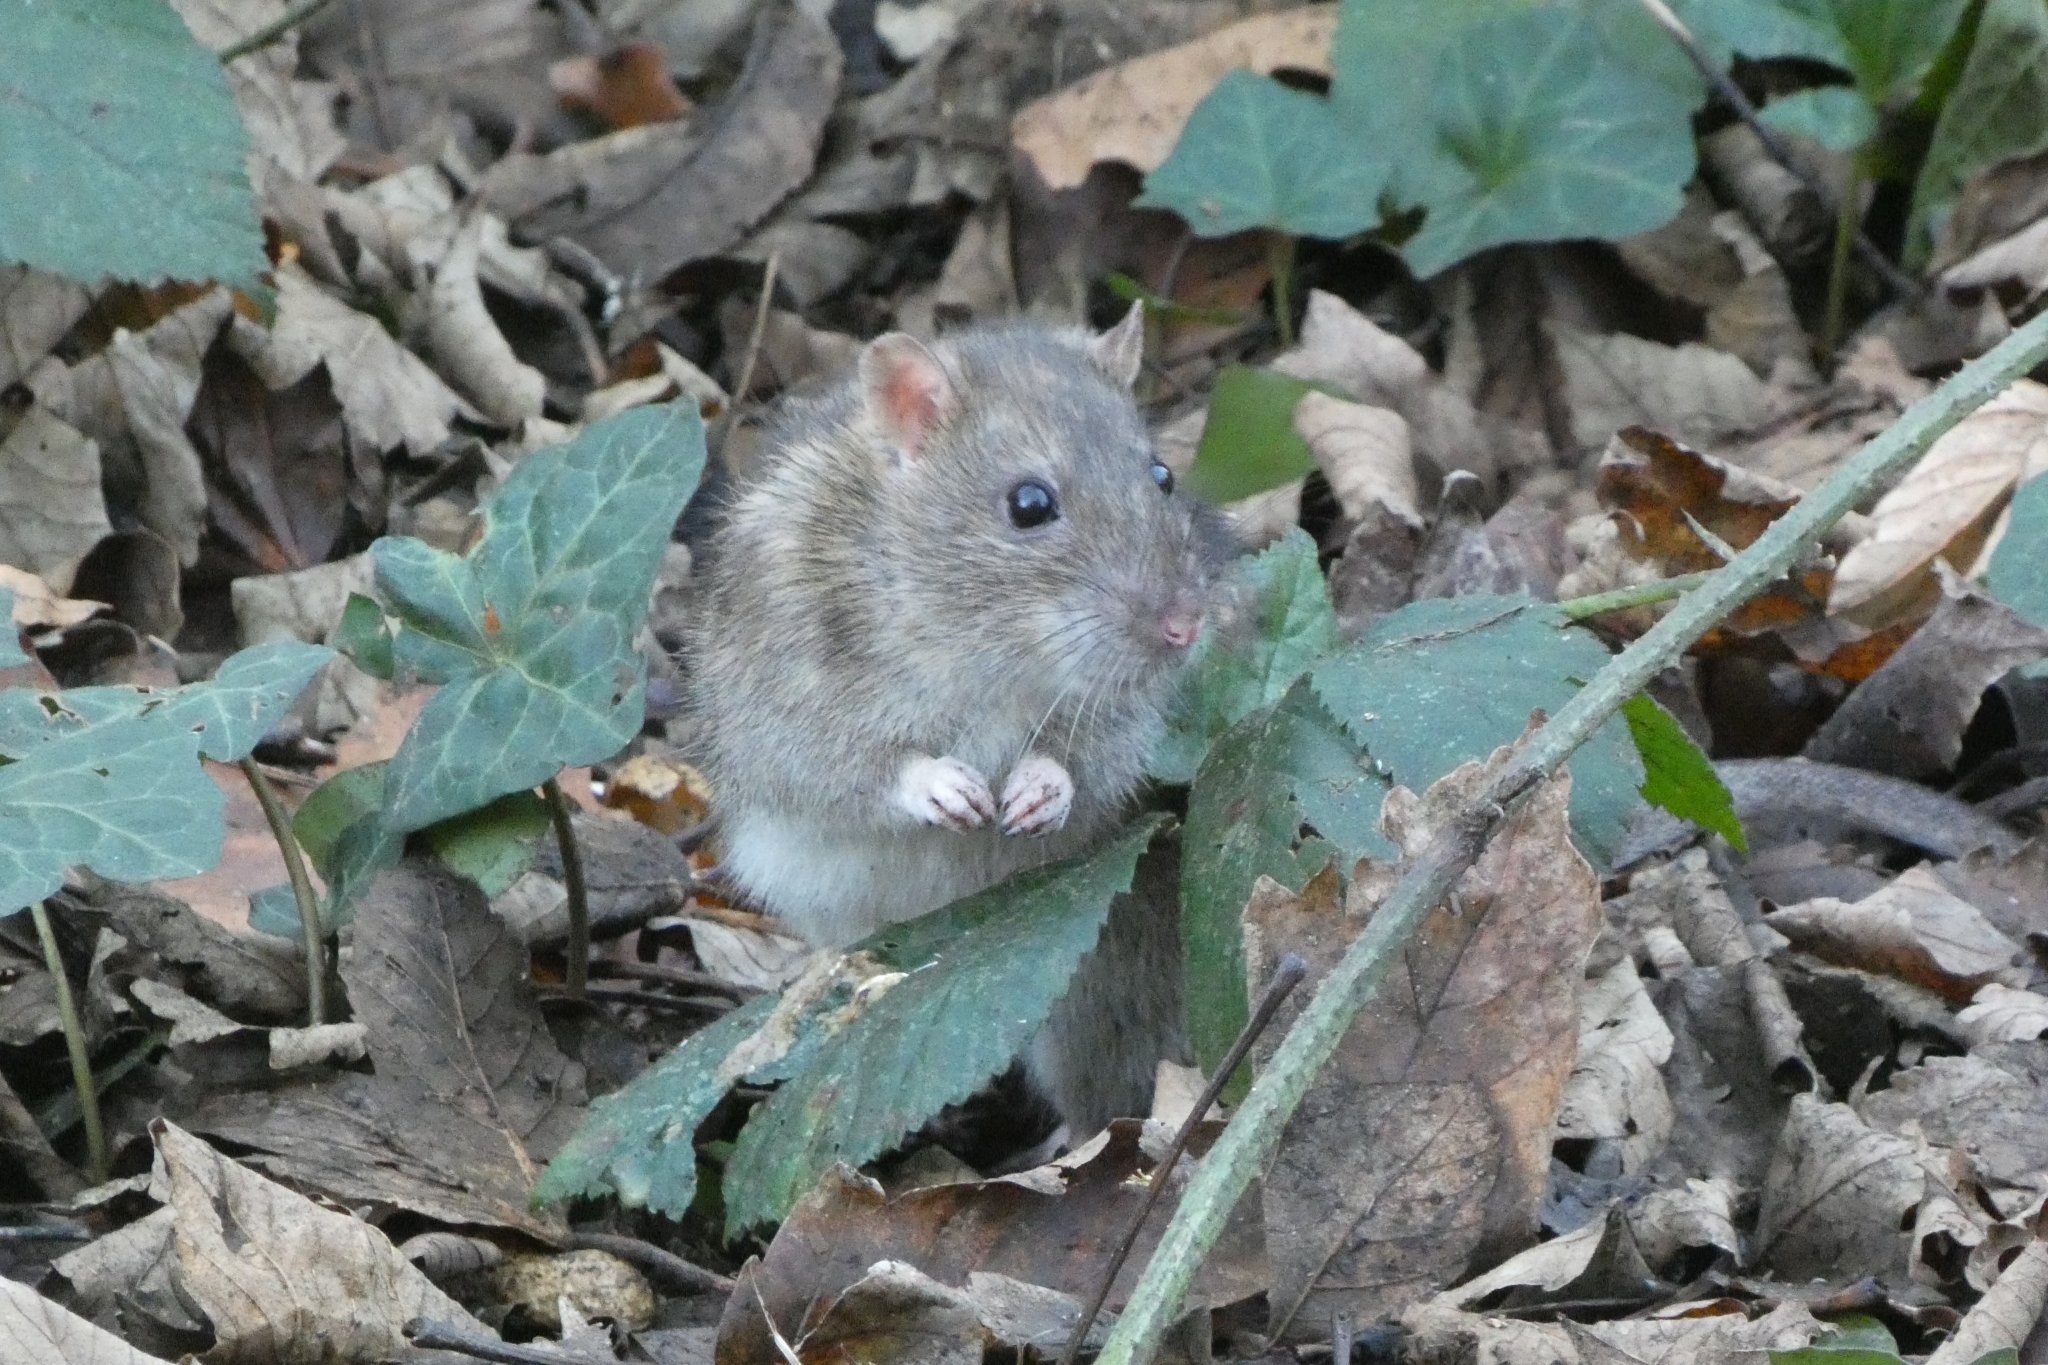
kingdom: Animalia
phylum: Chordata
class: Mammalia
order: Rodentia
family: Muridae
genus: Rattus
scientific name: Rattus norvegicus
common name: Brown rat
